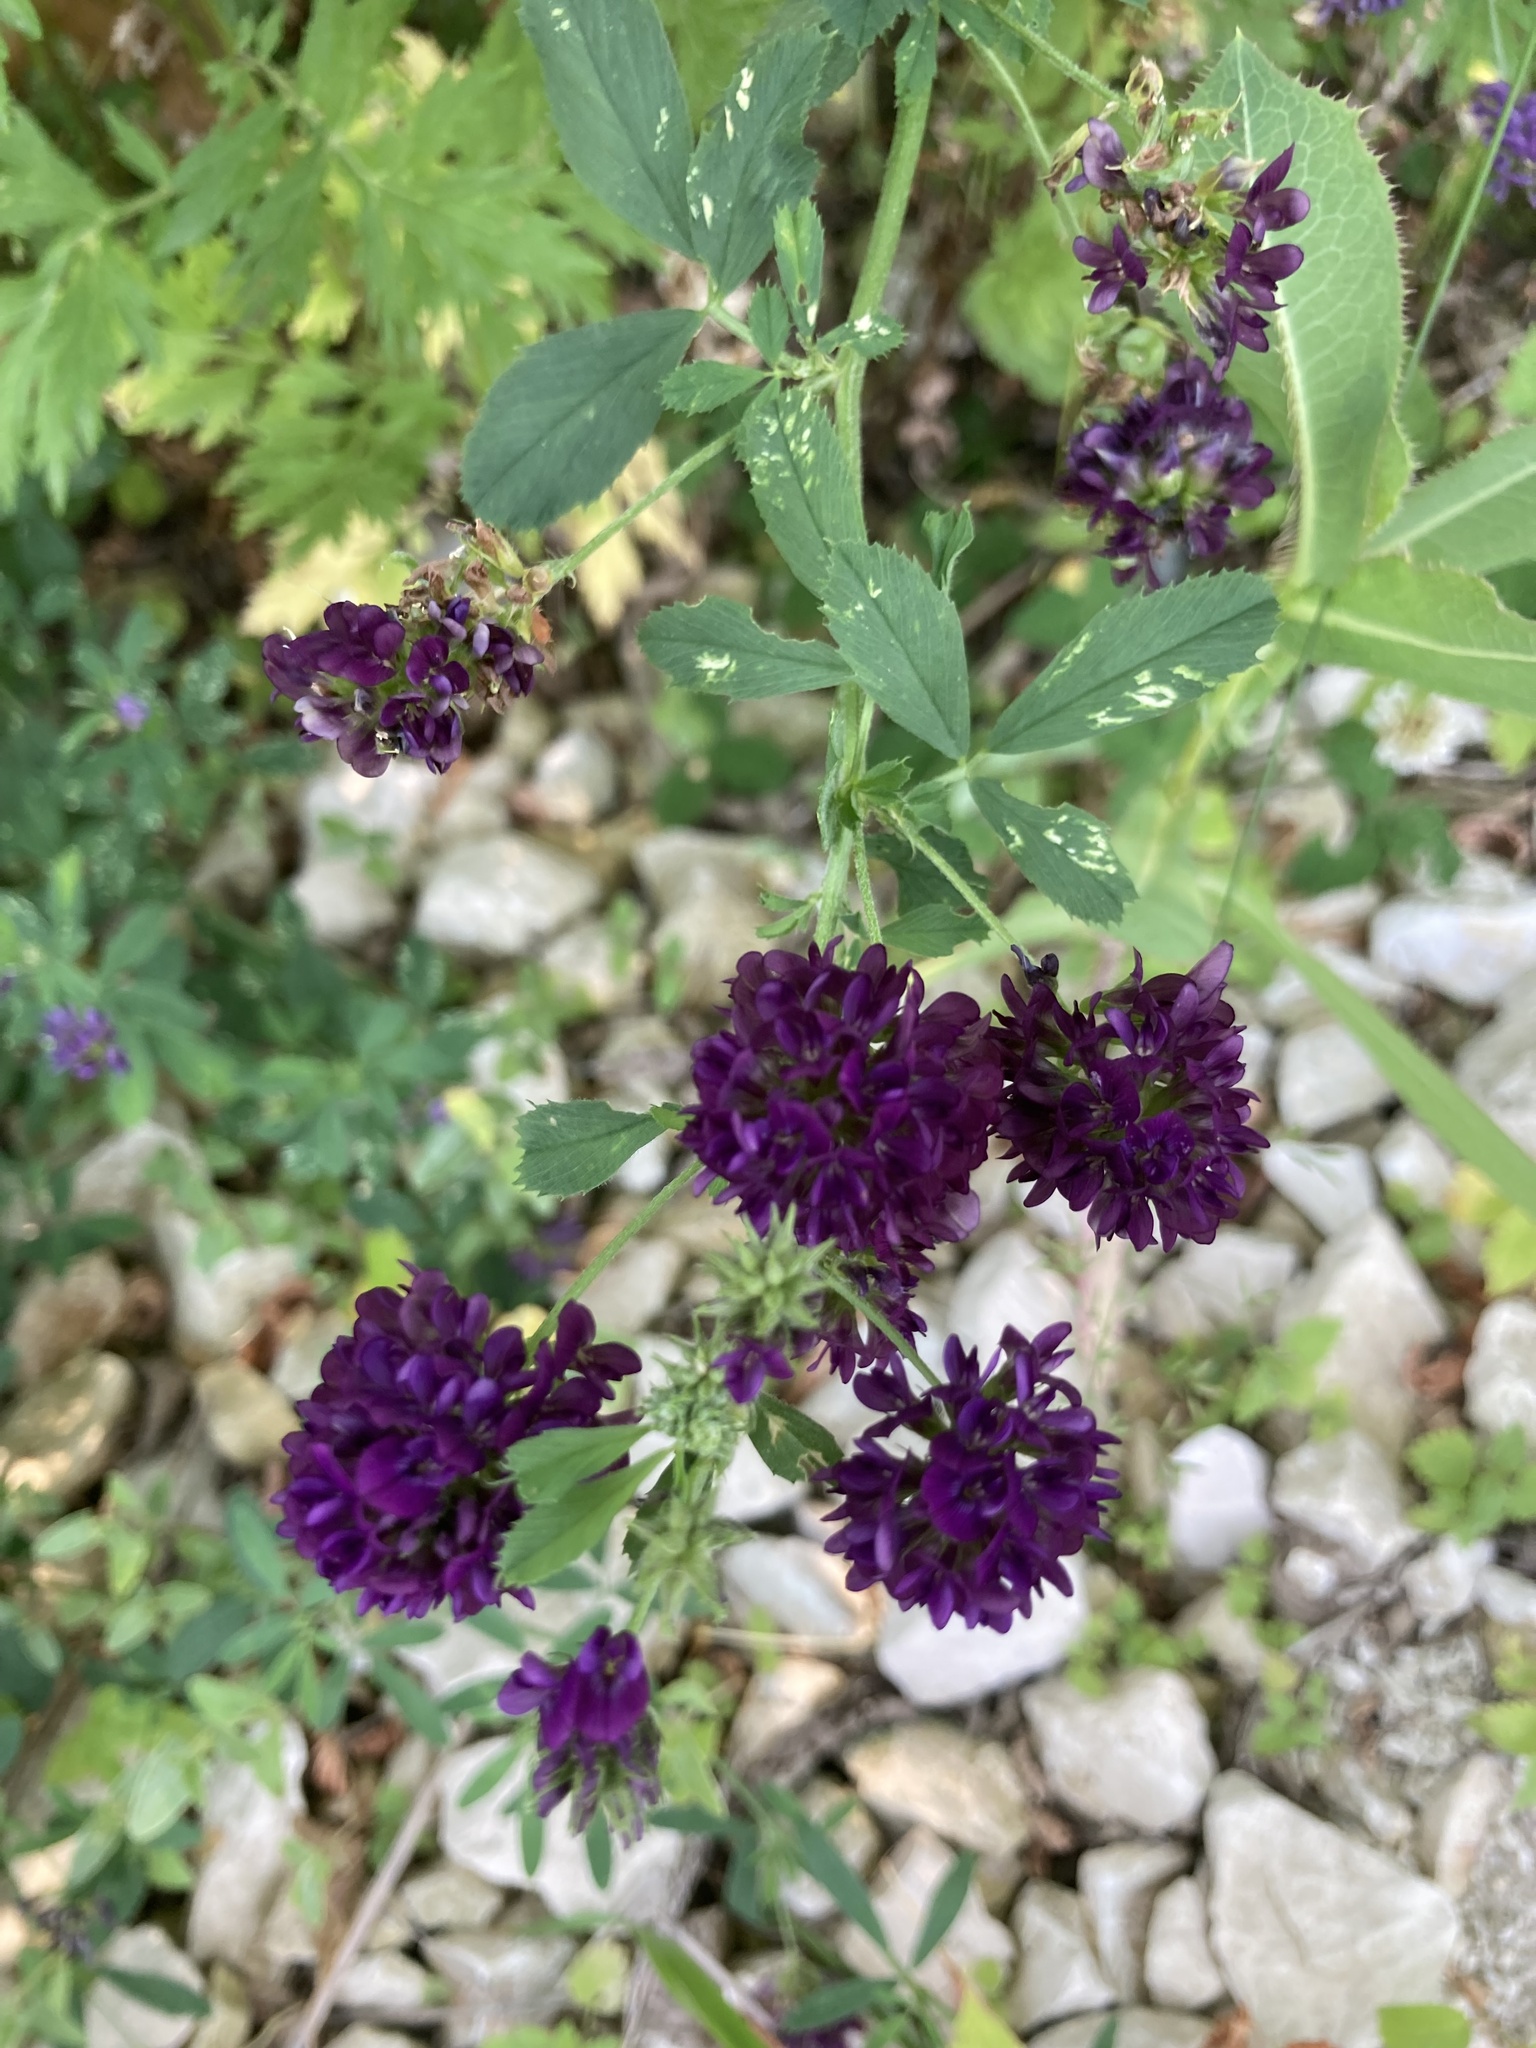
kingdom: Plantae
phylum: Tracheophyta
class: Magnoliopsida
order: Fabales
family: Fabaceae
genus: Medicago
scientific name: Medicago varia
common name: Sand lucerne
